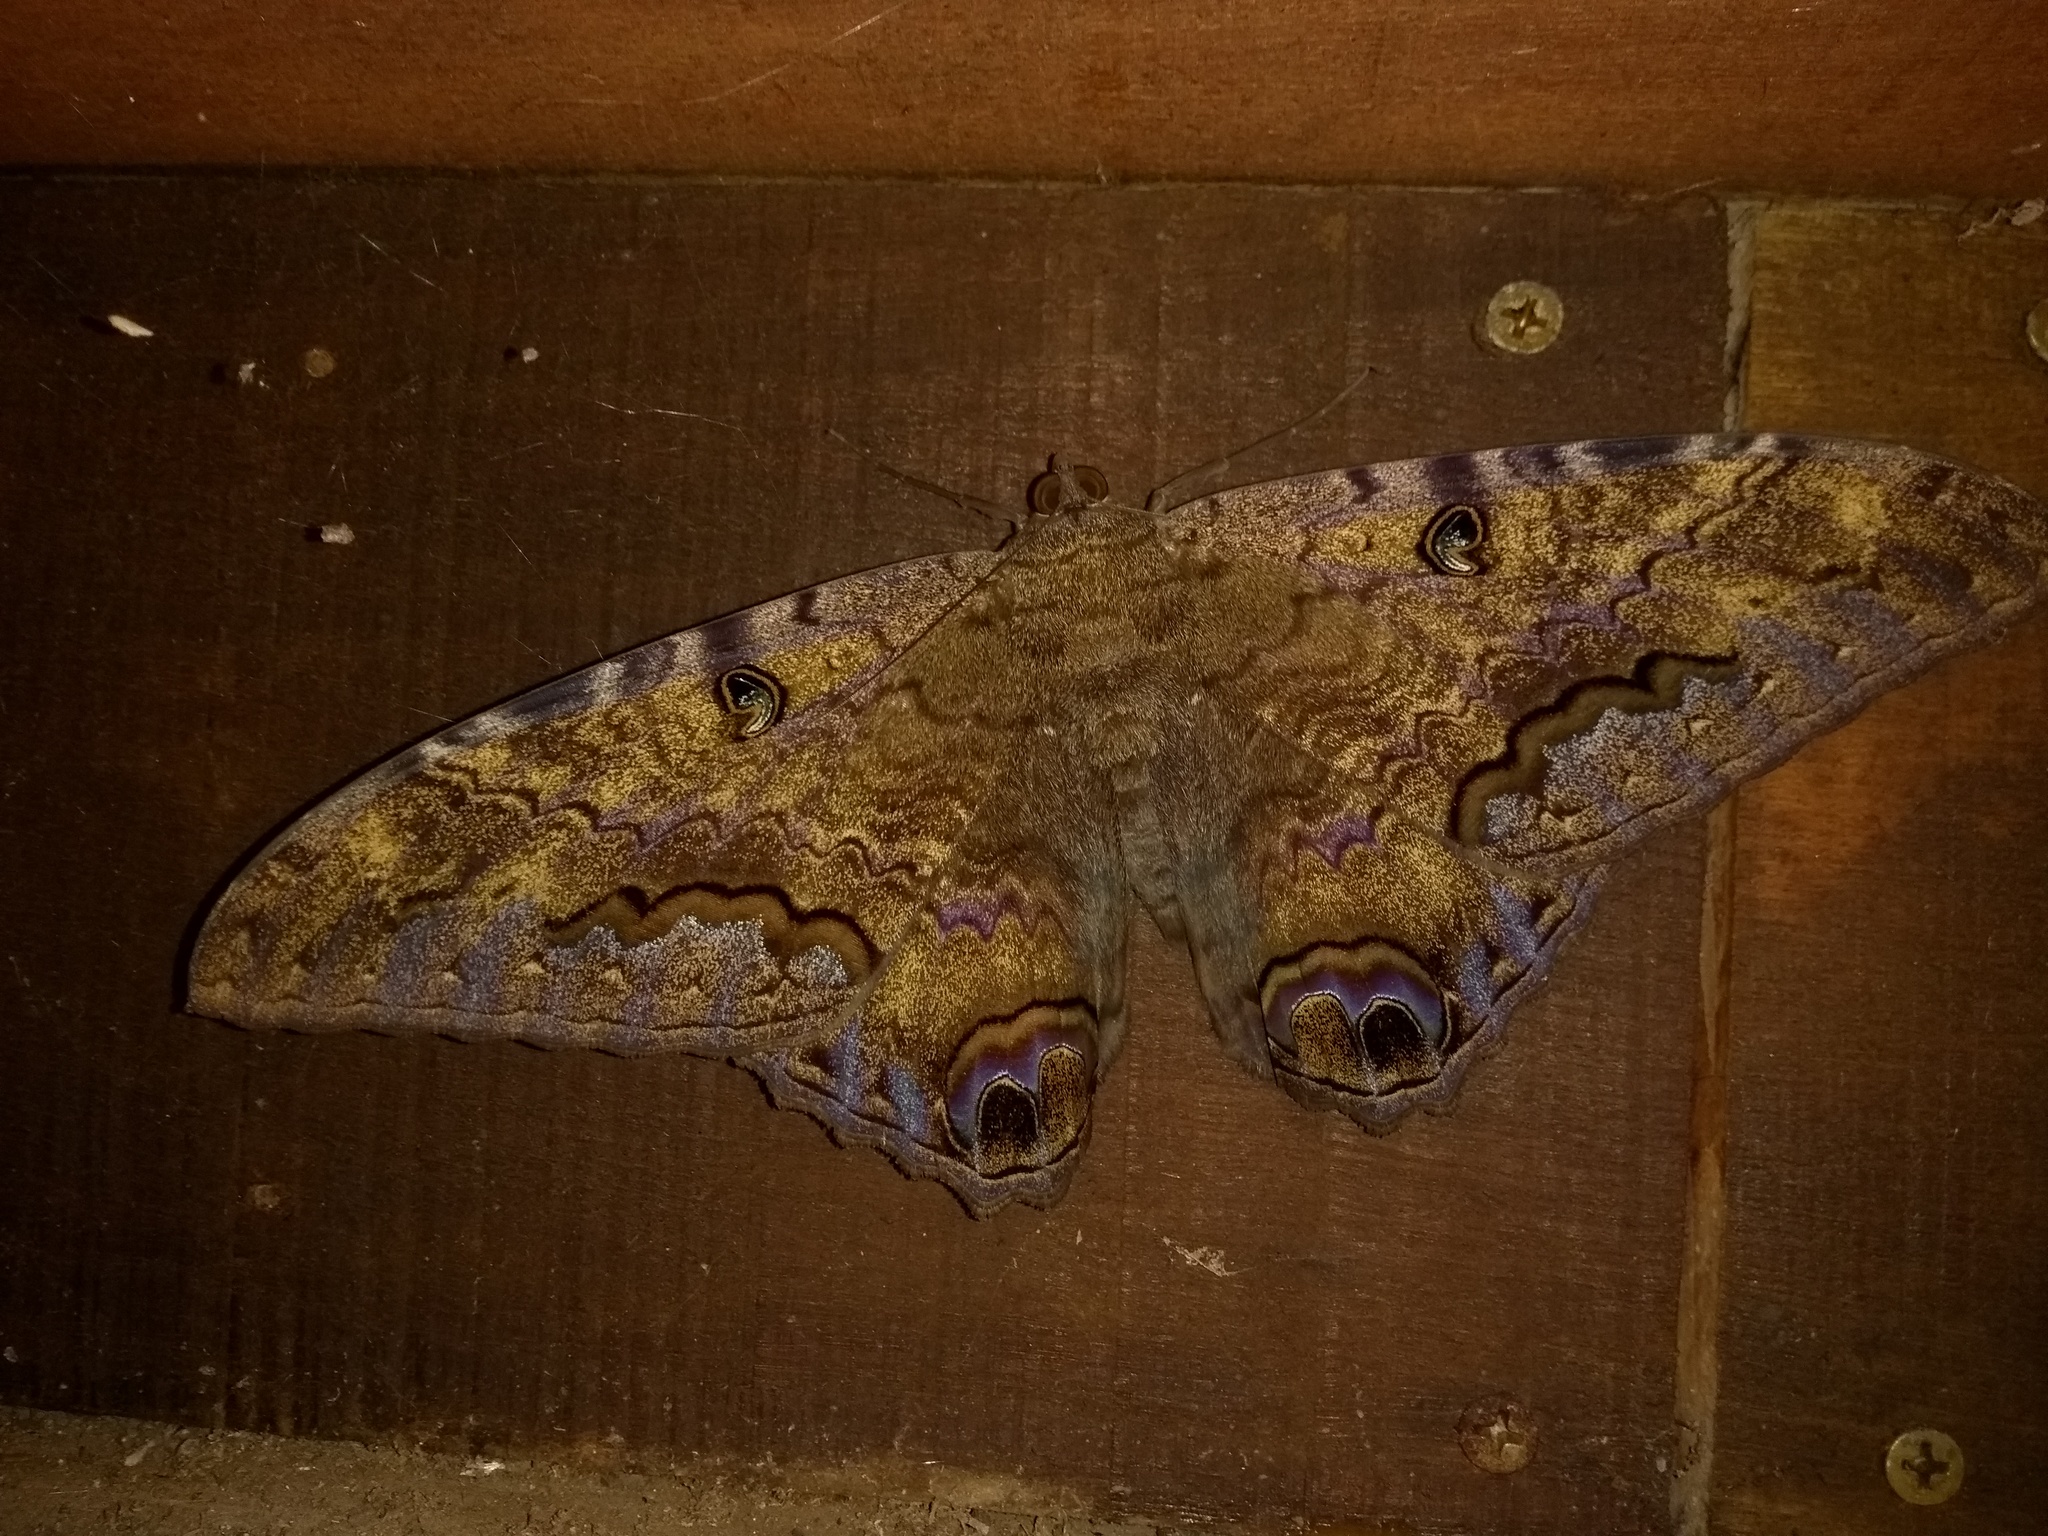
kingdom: Animalia
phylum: Arthropoda
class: Insecta
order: Lepidoptera
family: Erebidae
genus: Ascalapha
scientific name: Ascalapha odorata
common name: Black witch
